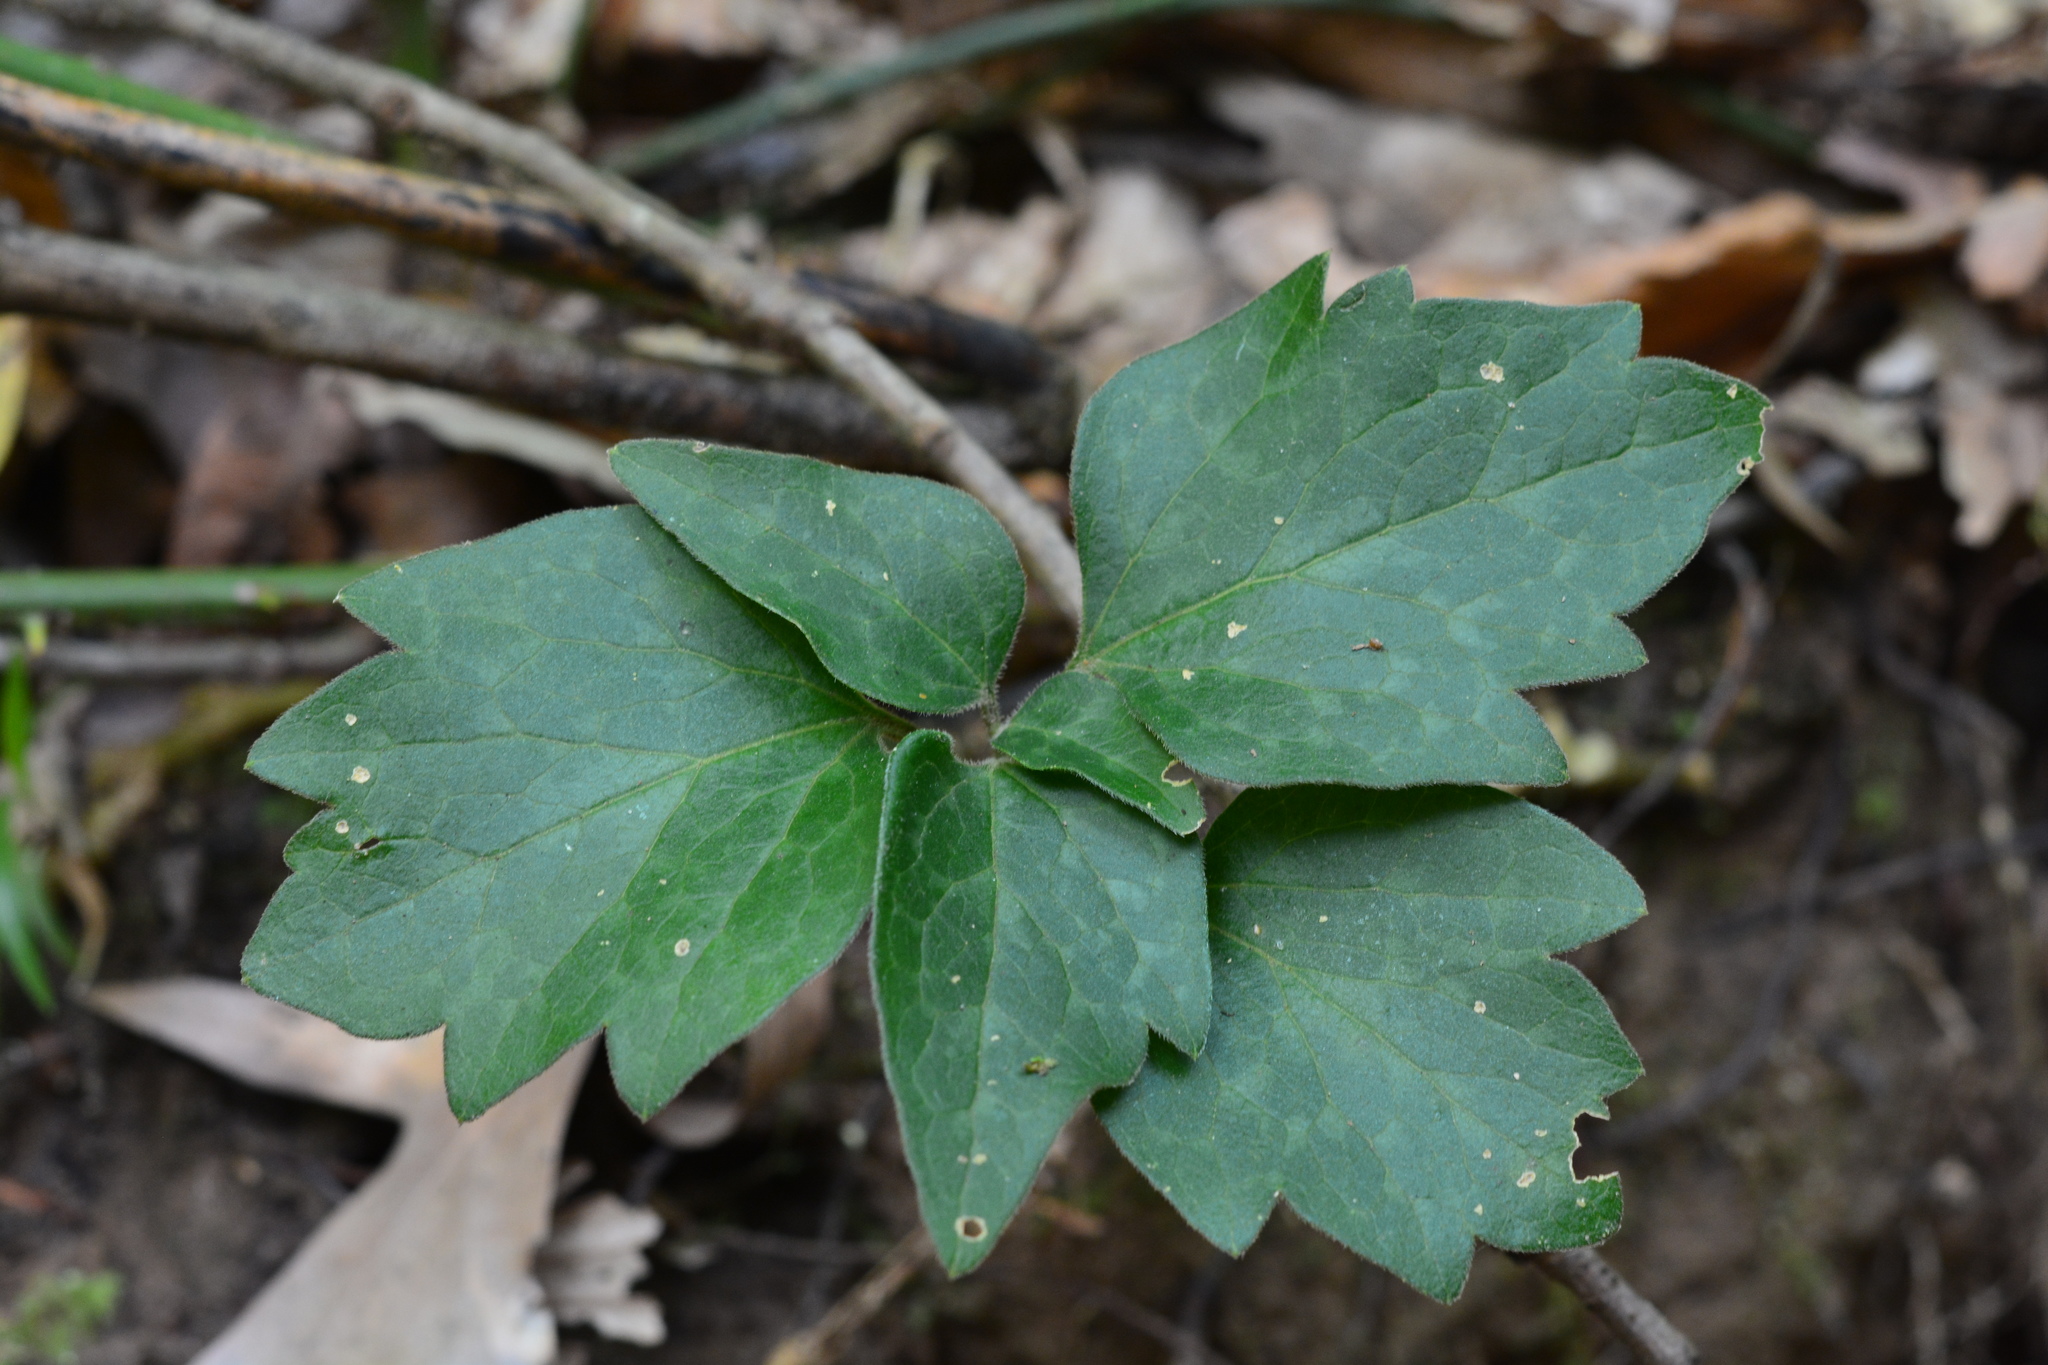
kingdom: Plantae
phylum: Tracheophyta
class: Magnoliopsida
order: Buxales
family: Buxaceae
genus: Pachysandra
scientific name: Pachysandra procumbens
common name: Mountain-spurge
